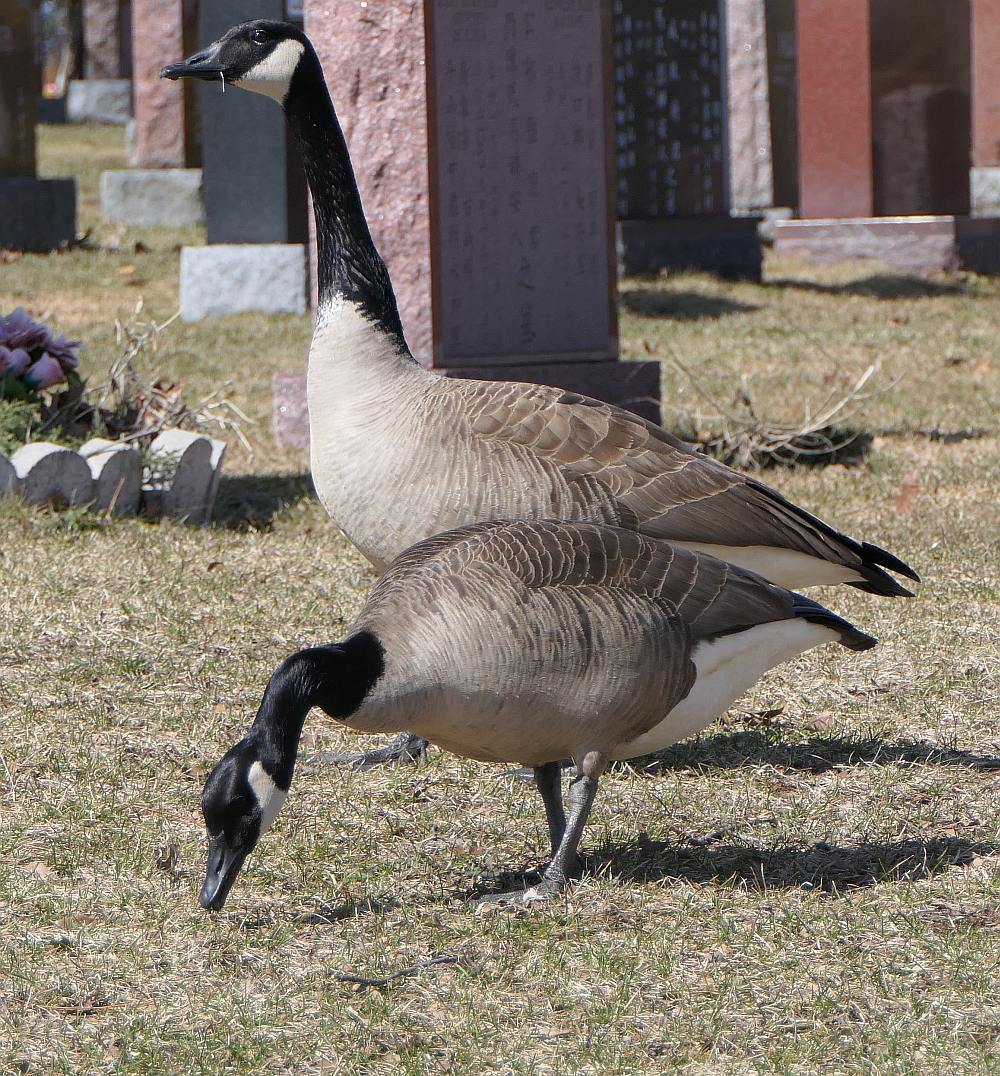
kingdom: Animalia
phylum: Chordata
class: Aves
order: Anseriformes
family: Anatidae
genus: Branta
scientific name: Branta canadensis
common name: Canada goose
